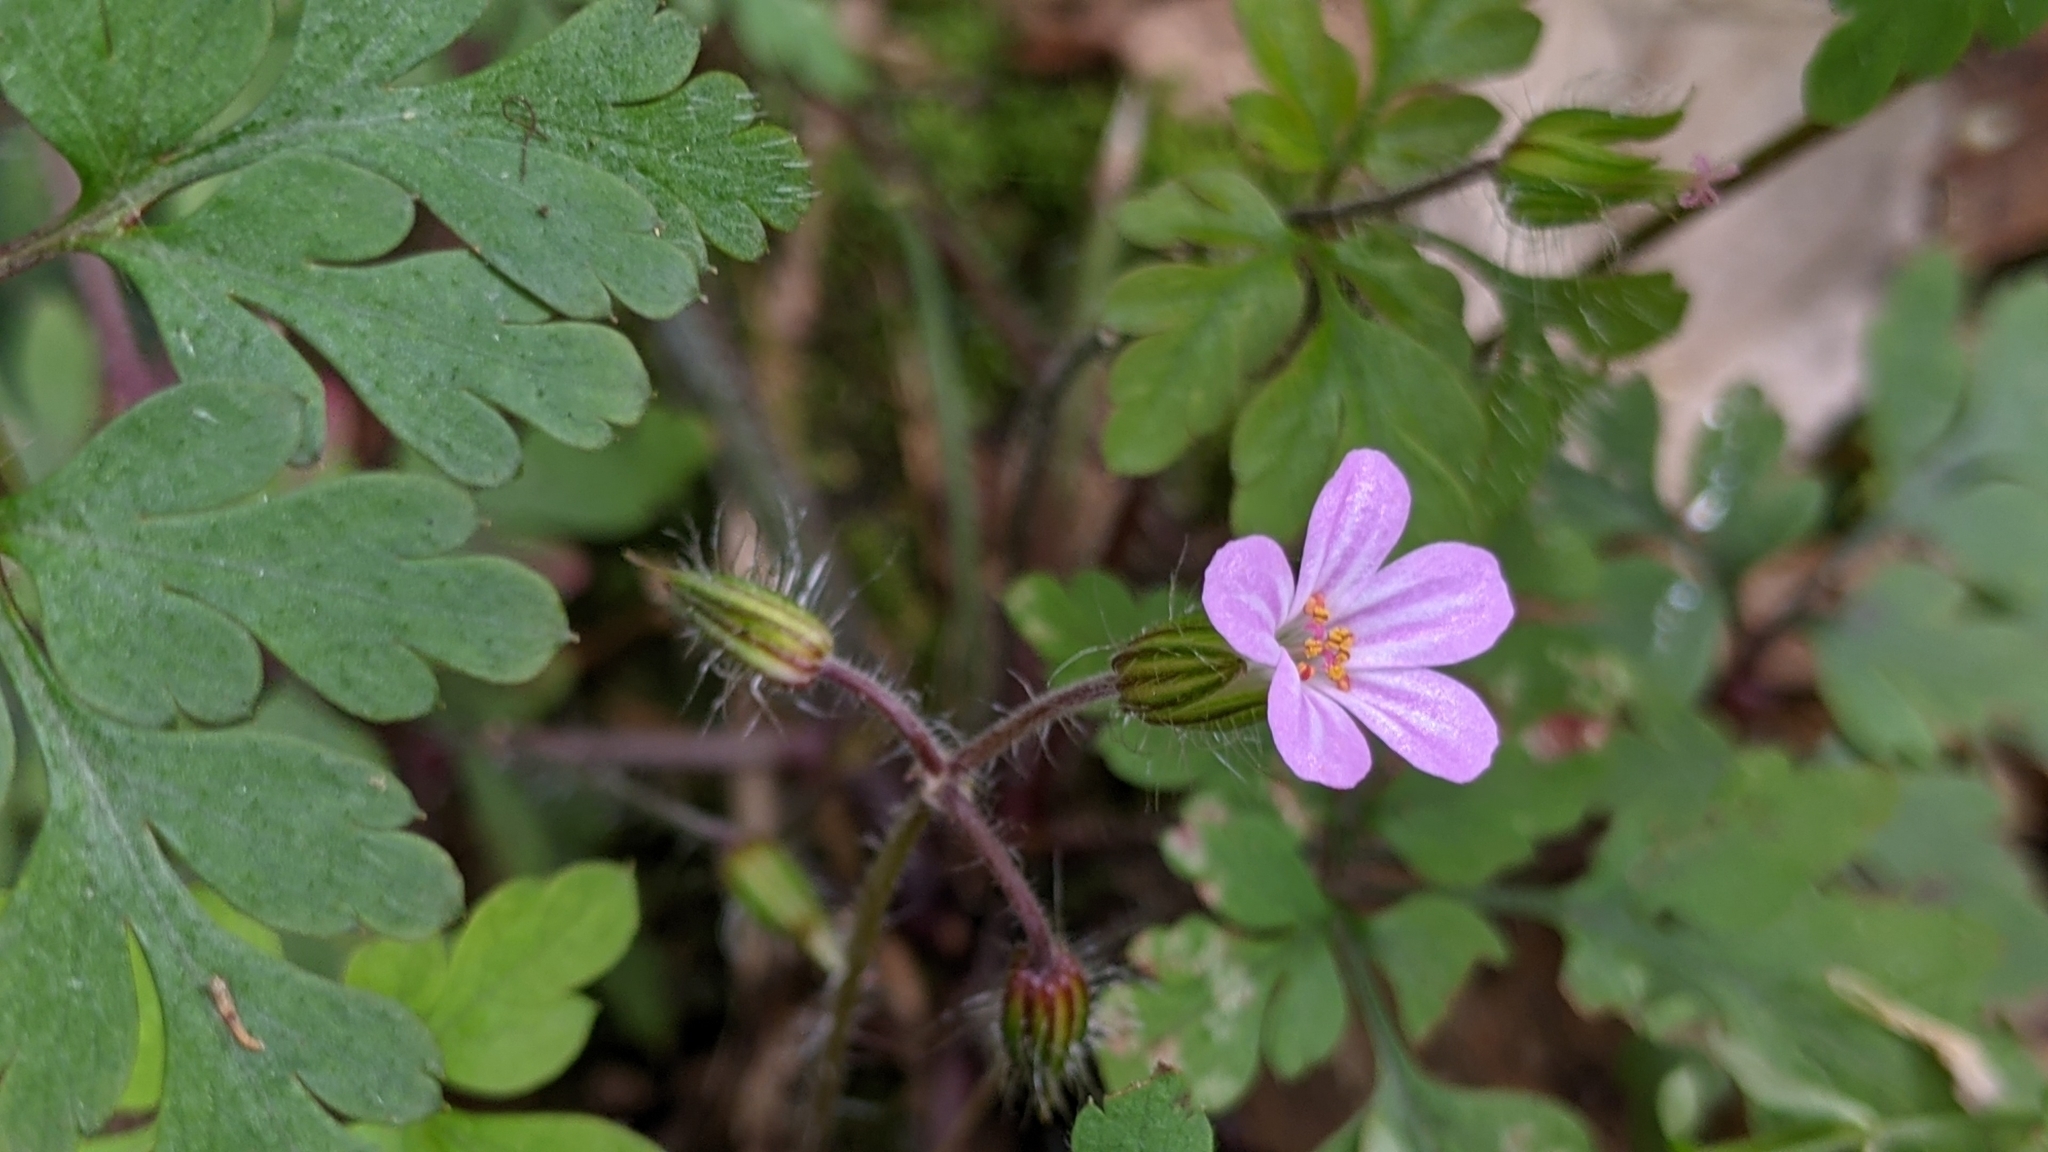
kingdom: Plantae
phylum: Tracheophyta
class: Magnoliopsida
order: Geraniales
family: Geraniaceae
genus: Geranium
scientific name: Geranium robertianum
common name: Herb-robert
